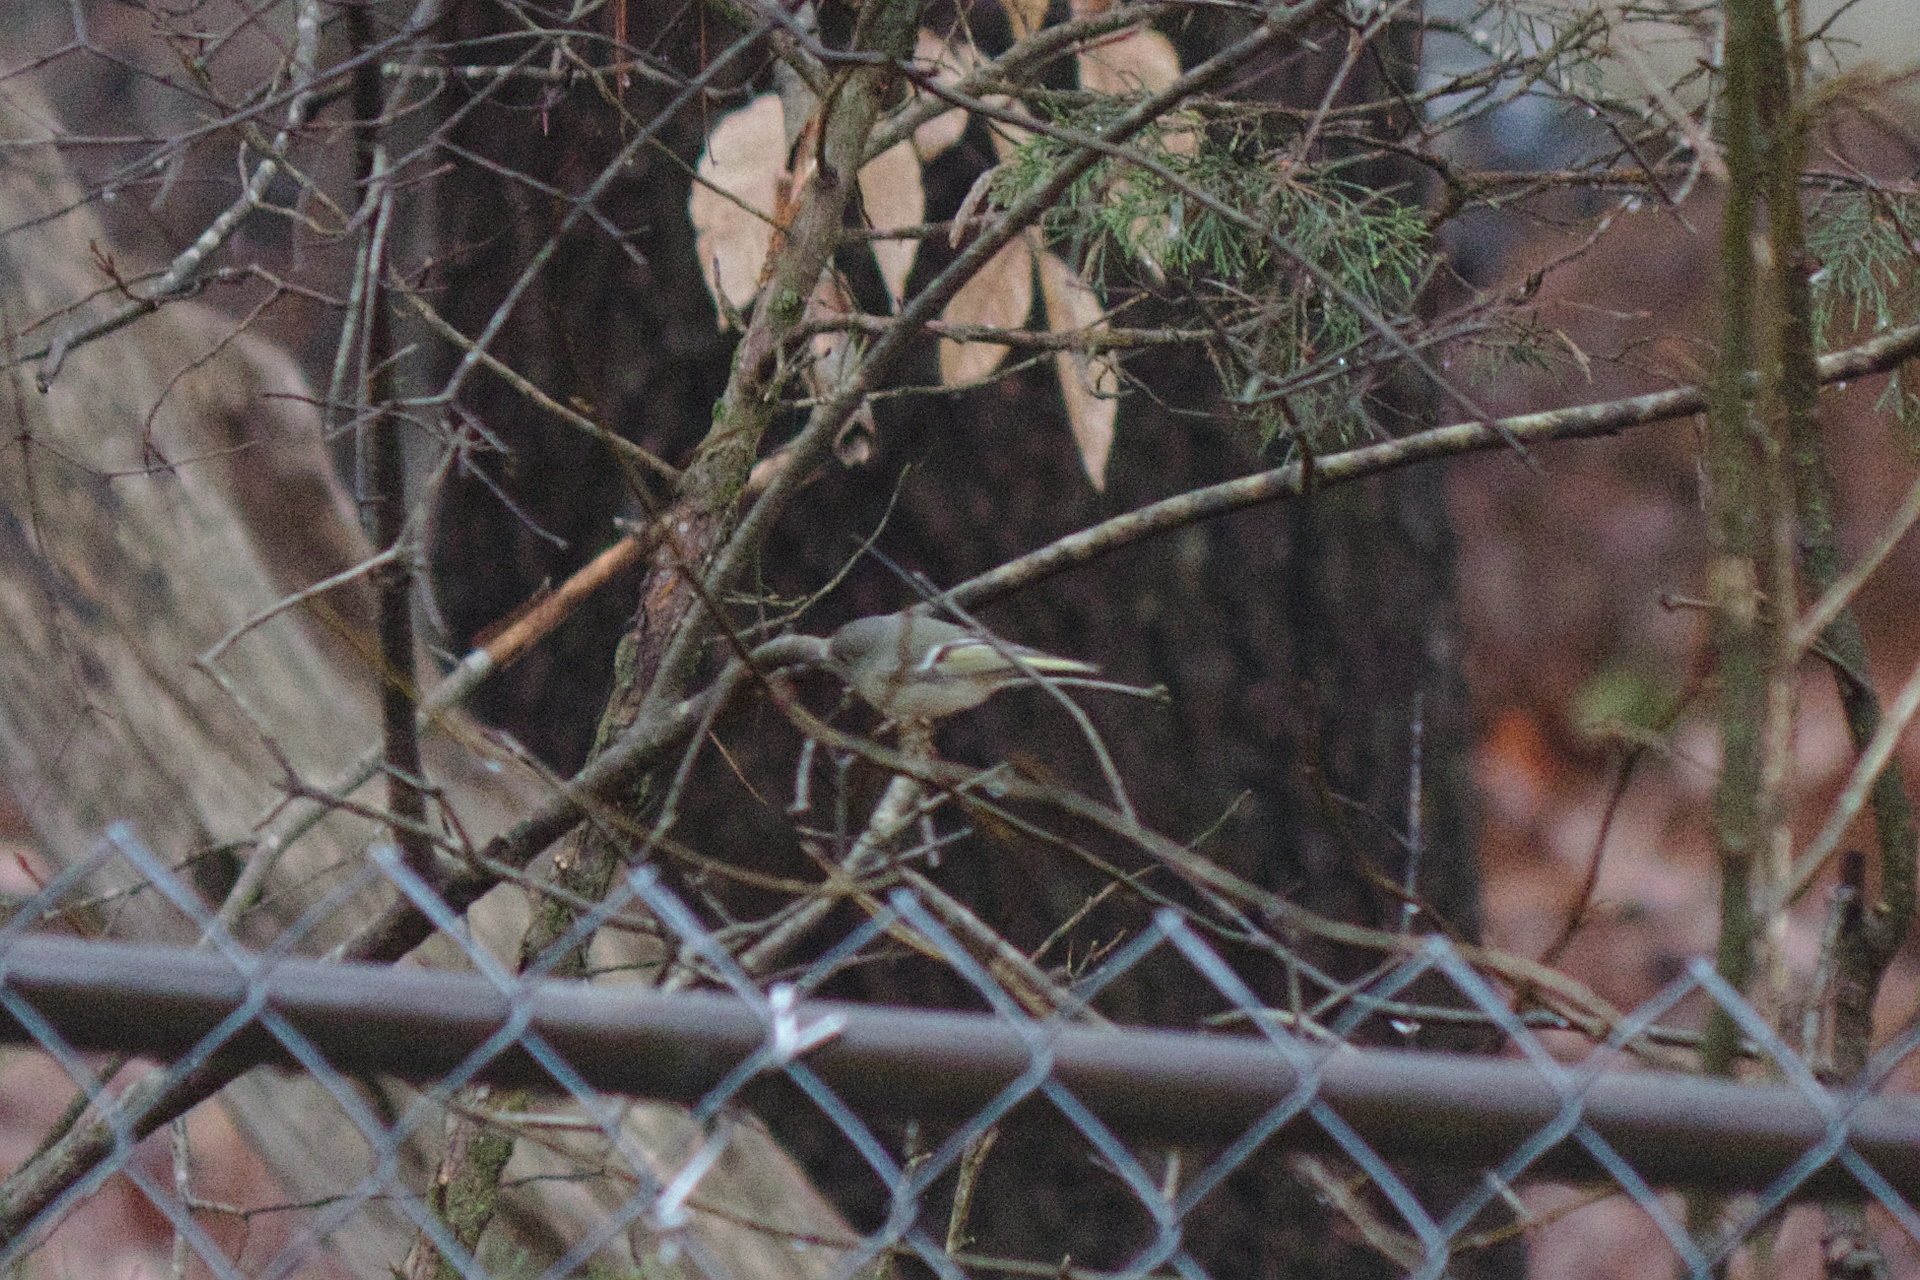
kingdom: Animalia
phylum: Chordata
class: Aves
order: Passeriformes
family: Regulidae
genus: Regulus
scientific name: Regulus calendula
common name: Ruby-crowned kinglet
